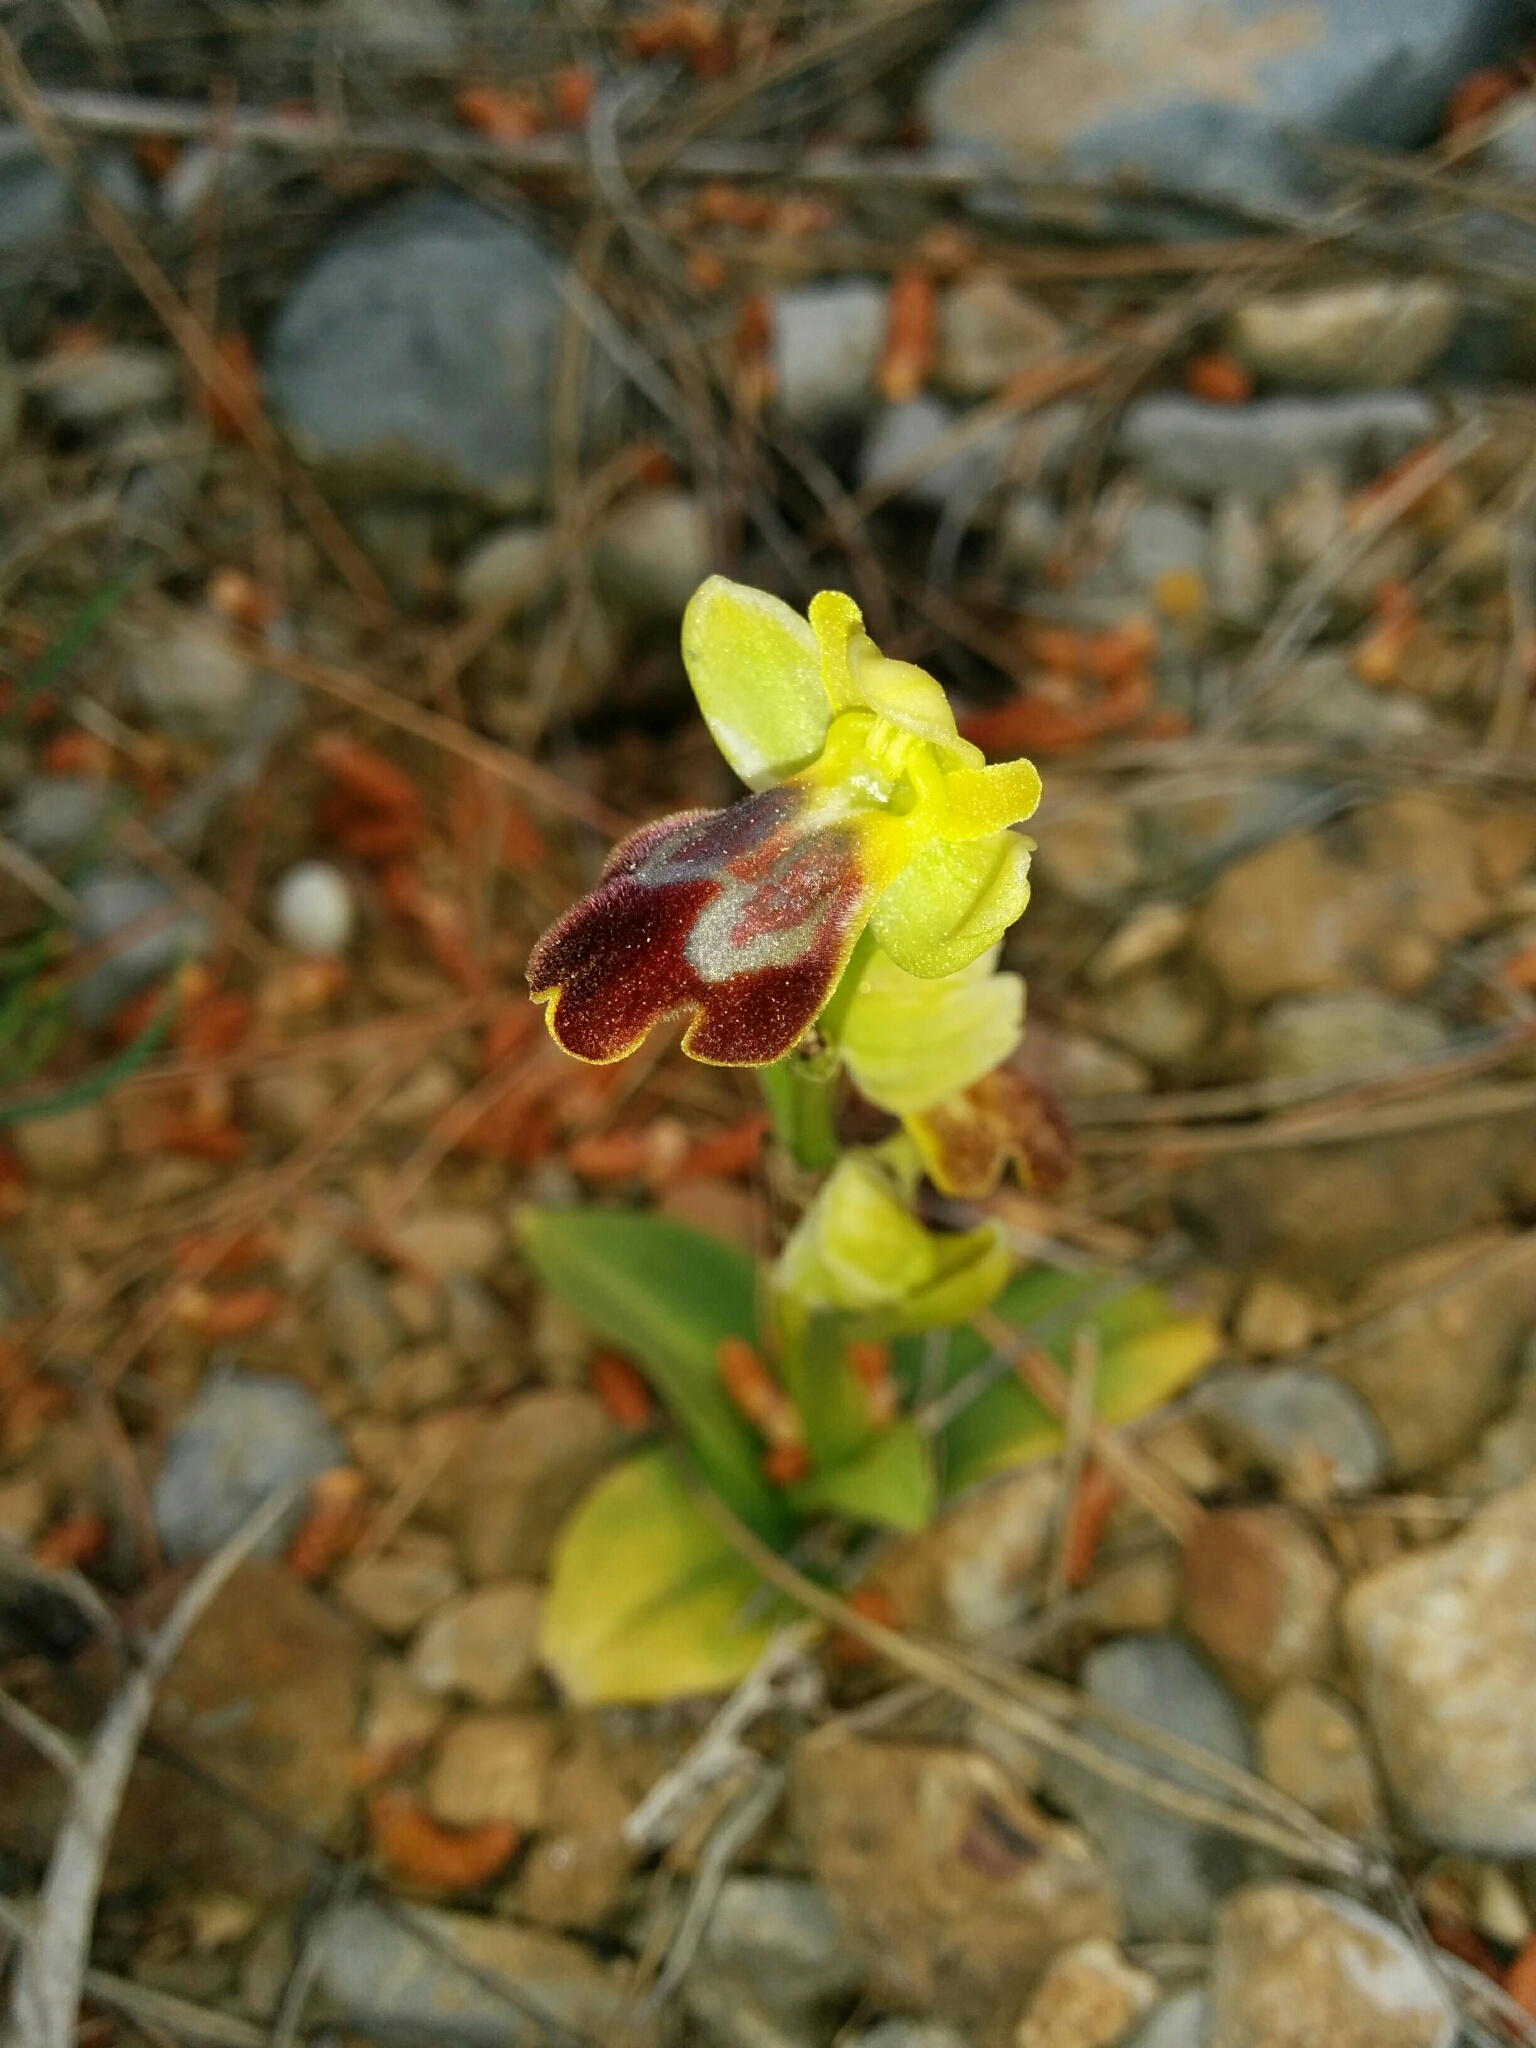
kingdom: Plantae
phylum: Tracheophyta
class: Liliopsida
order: Asparagales
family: Orchidaceae
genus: Ophrys
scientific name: Ophrys fusca
